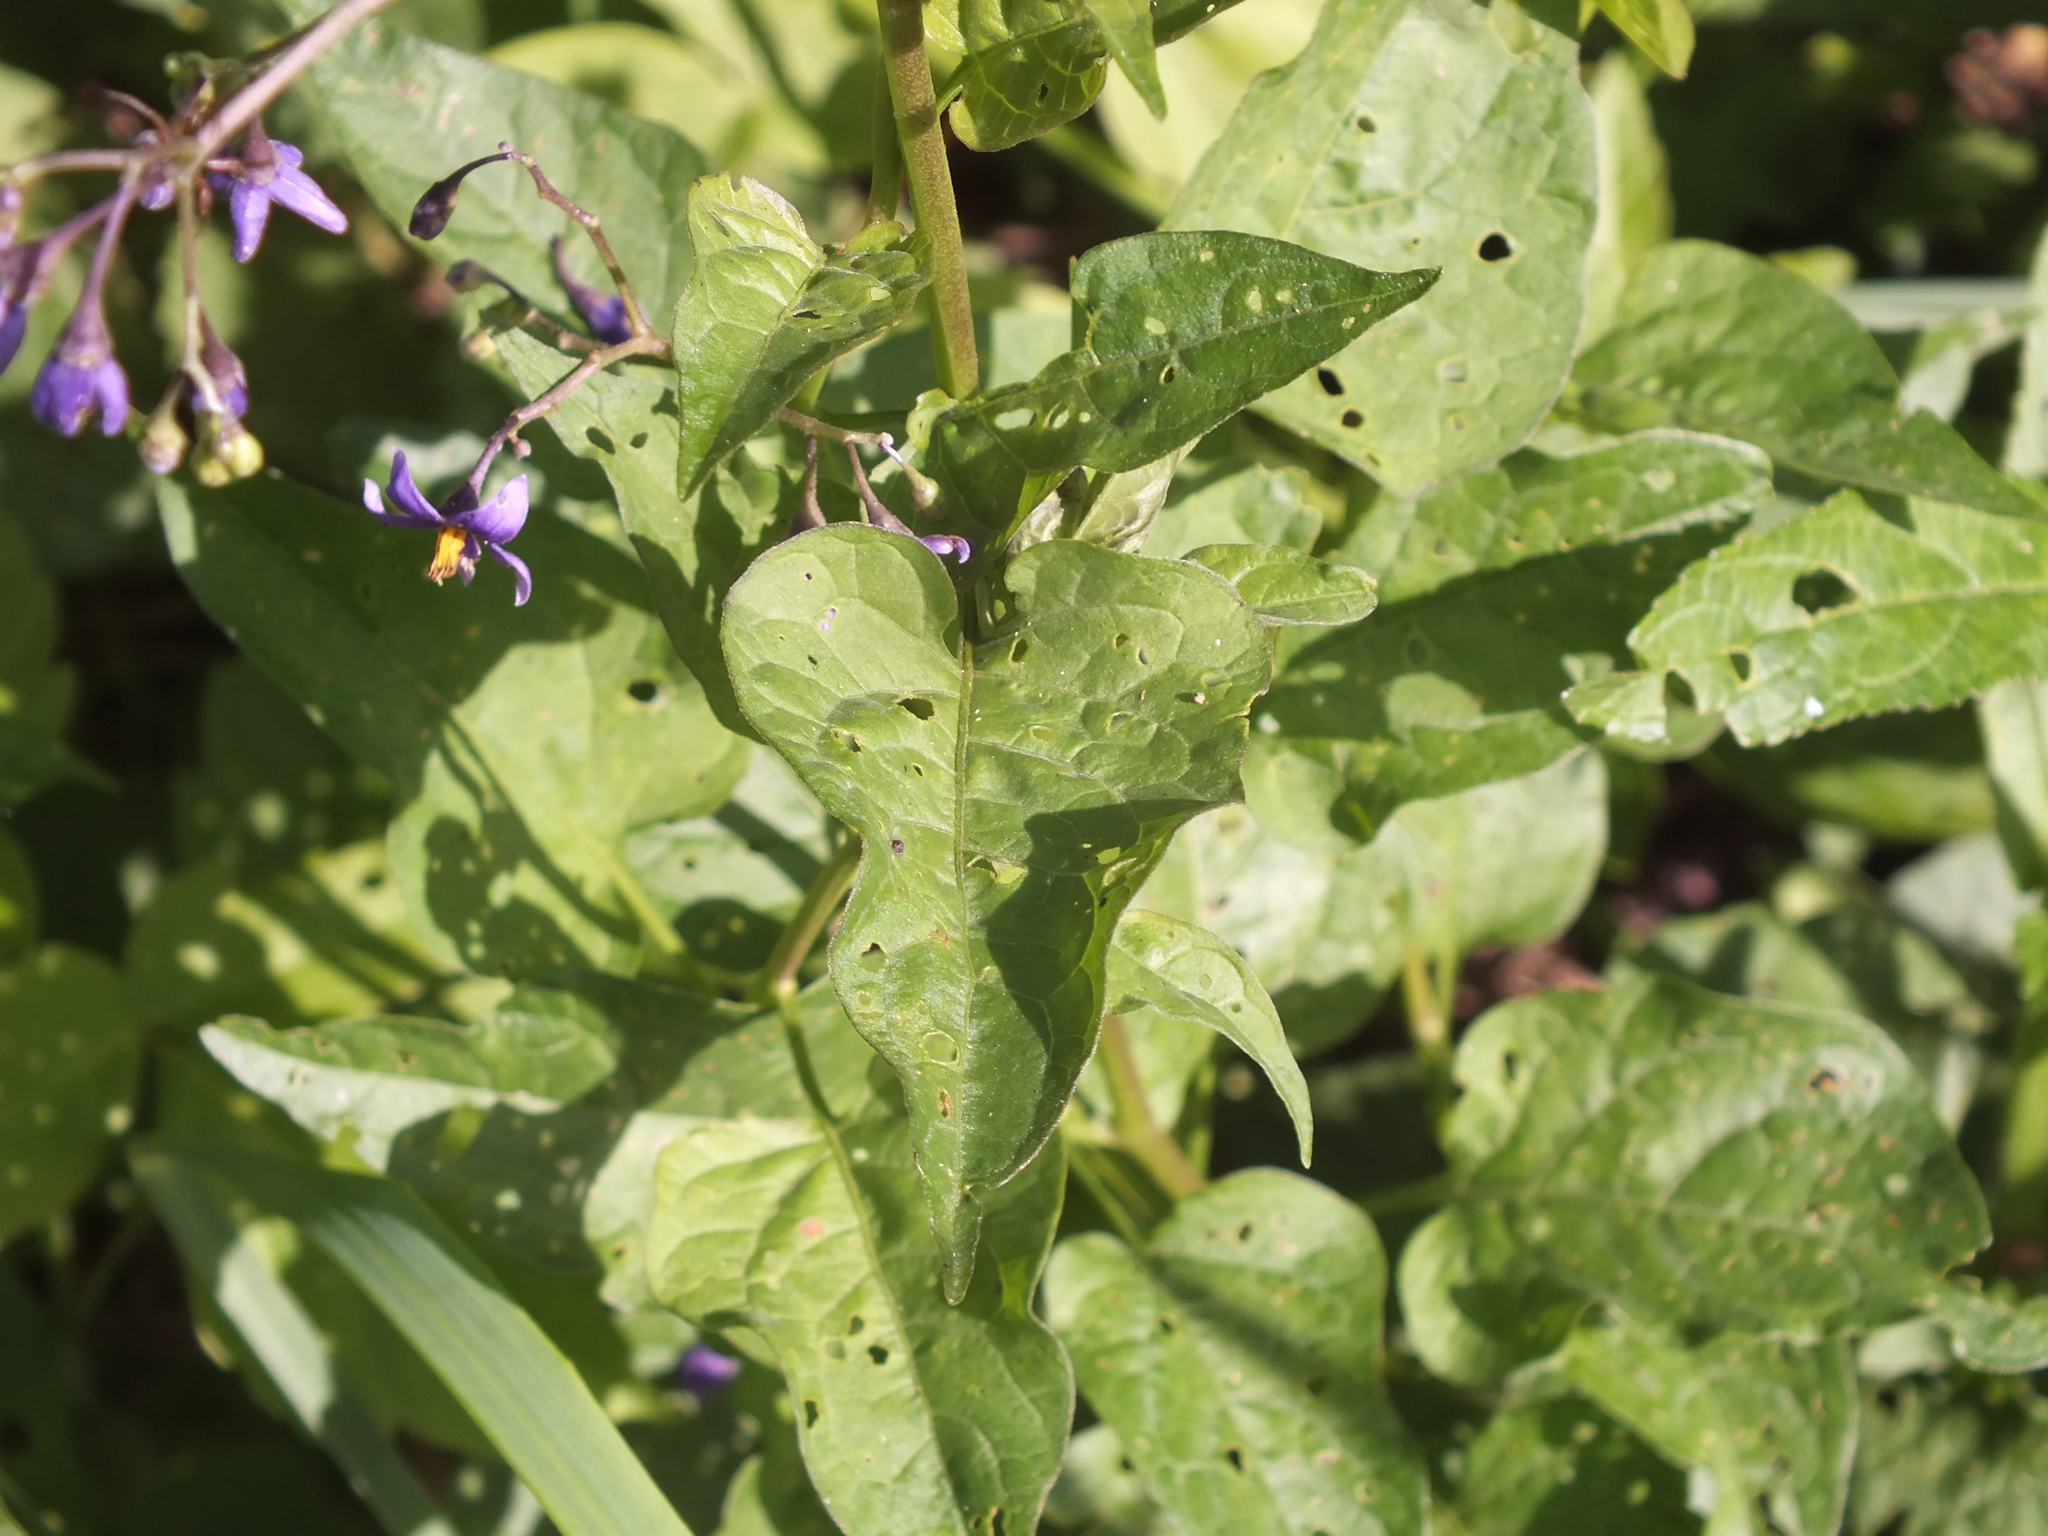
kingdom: Plantae
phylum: Tracheophyta
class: Magnoliopsida
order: Solanales
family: Solanaceae
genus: Solanum
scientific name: Solanum dulcamara
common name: Climbing nightshade
